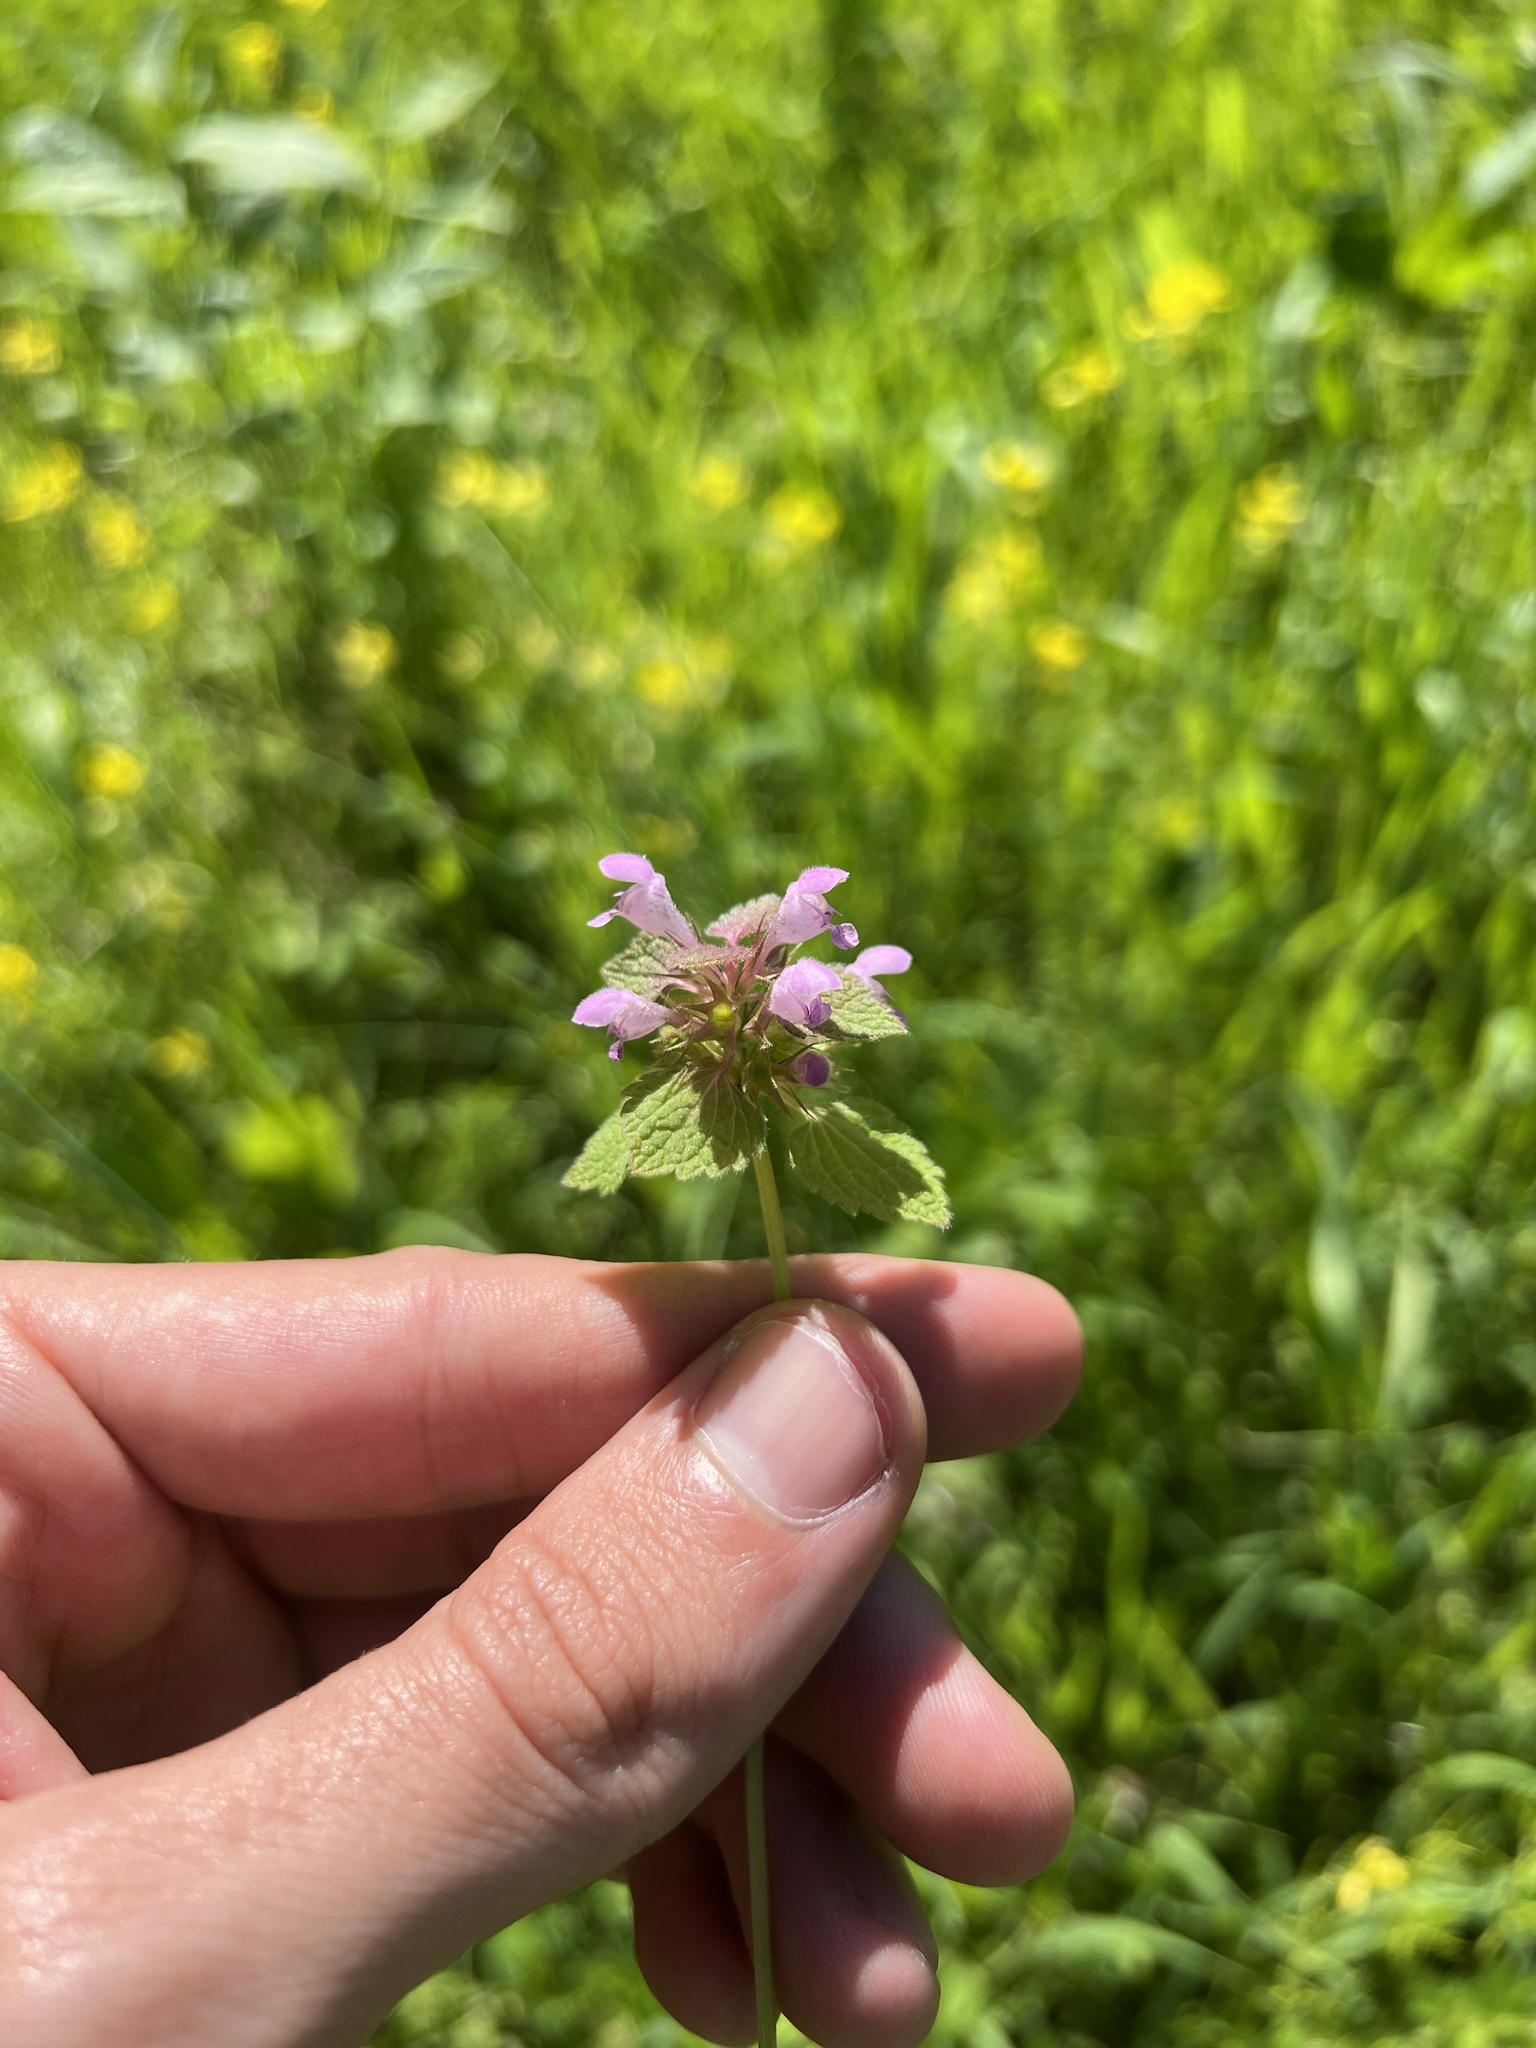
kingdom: Plantae
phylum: Tracheophyta
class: Magnoliopsida
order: Lamiales
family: Lamiaceae
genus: Lamium
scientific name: Lamium purpureum
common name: Red dead-nettle
